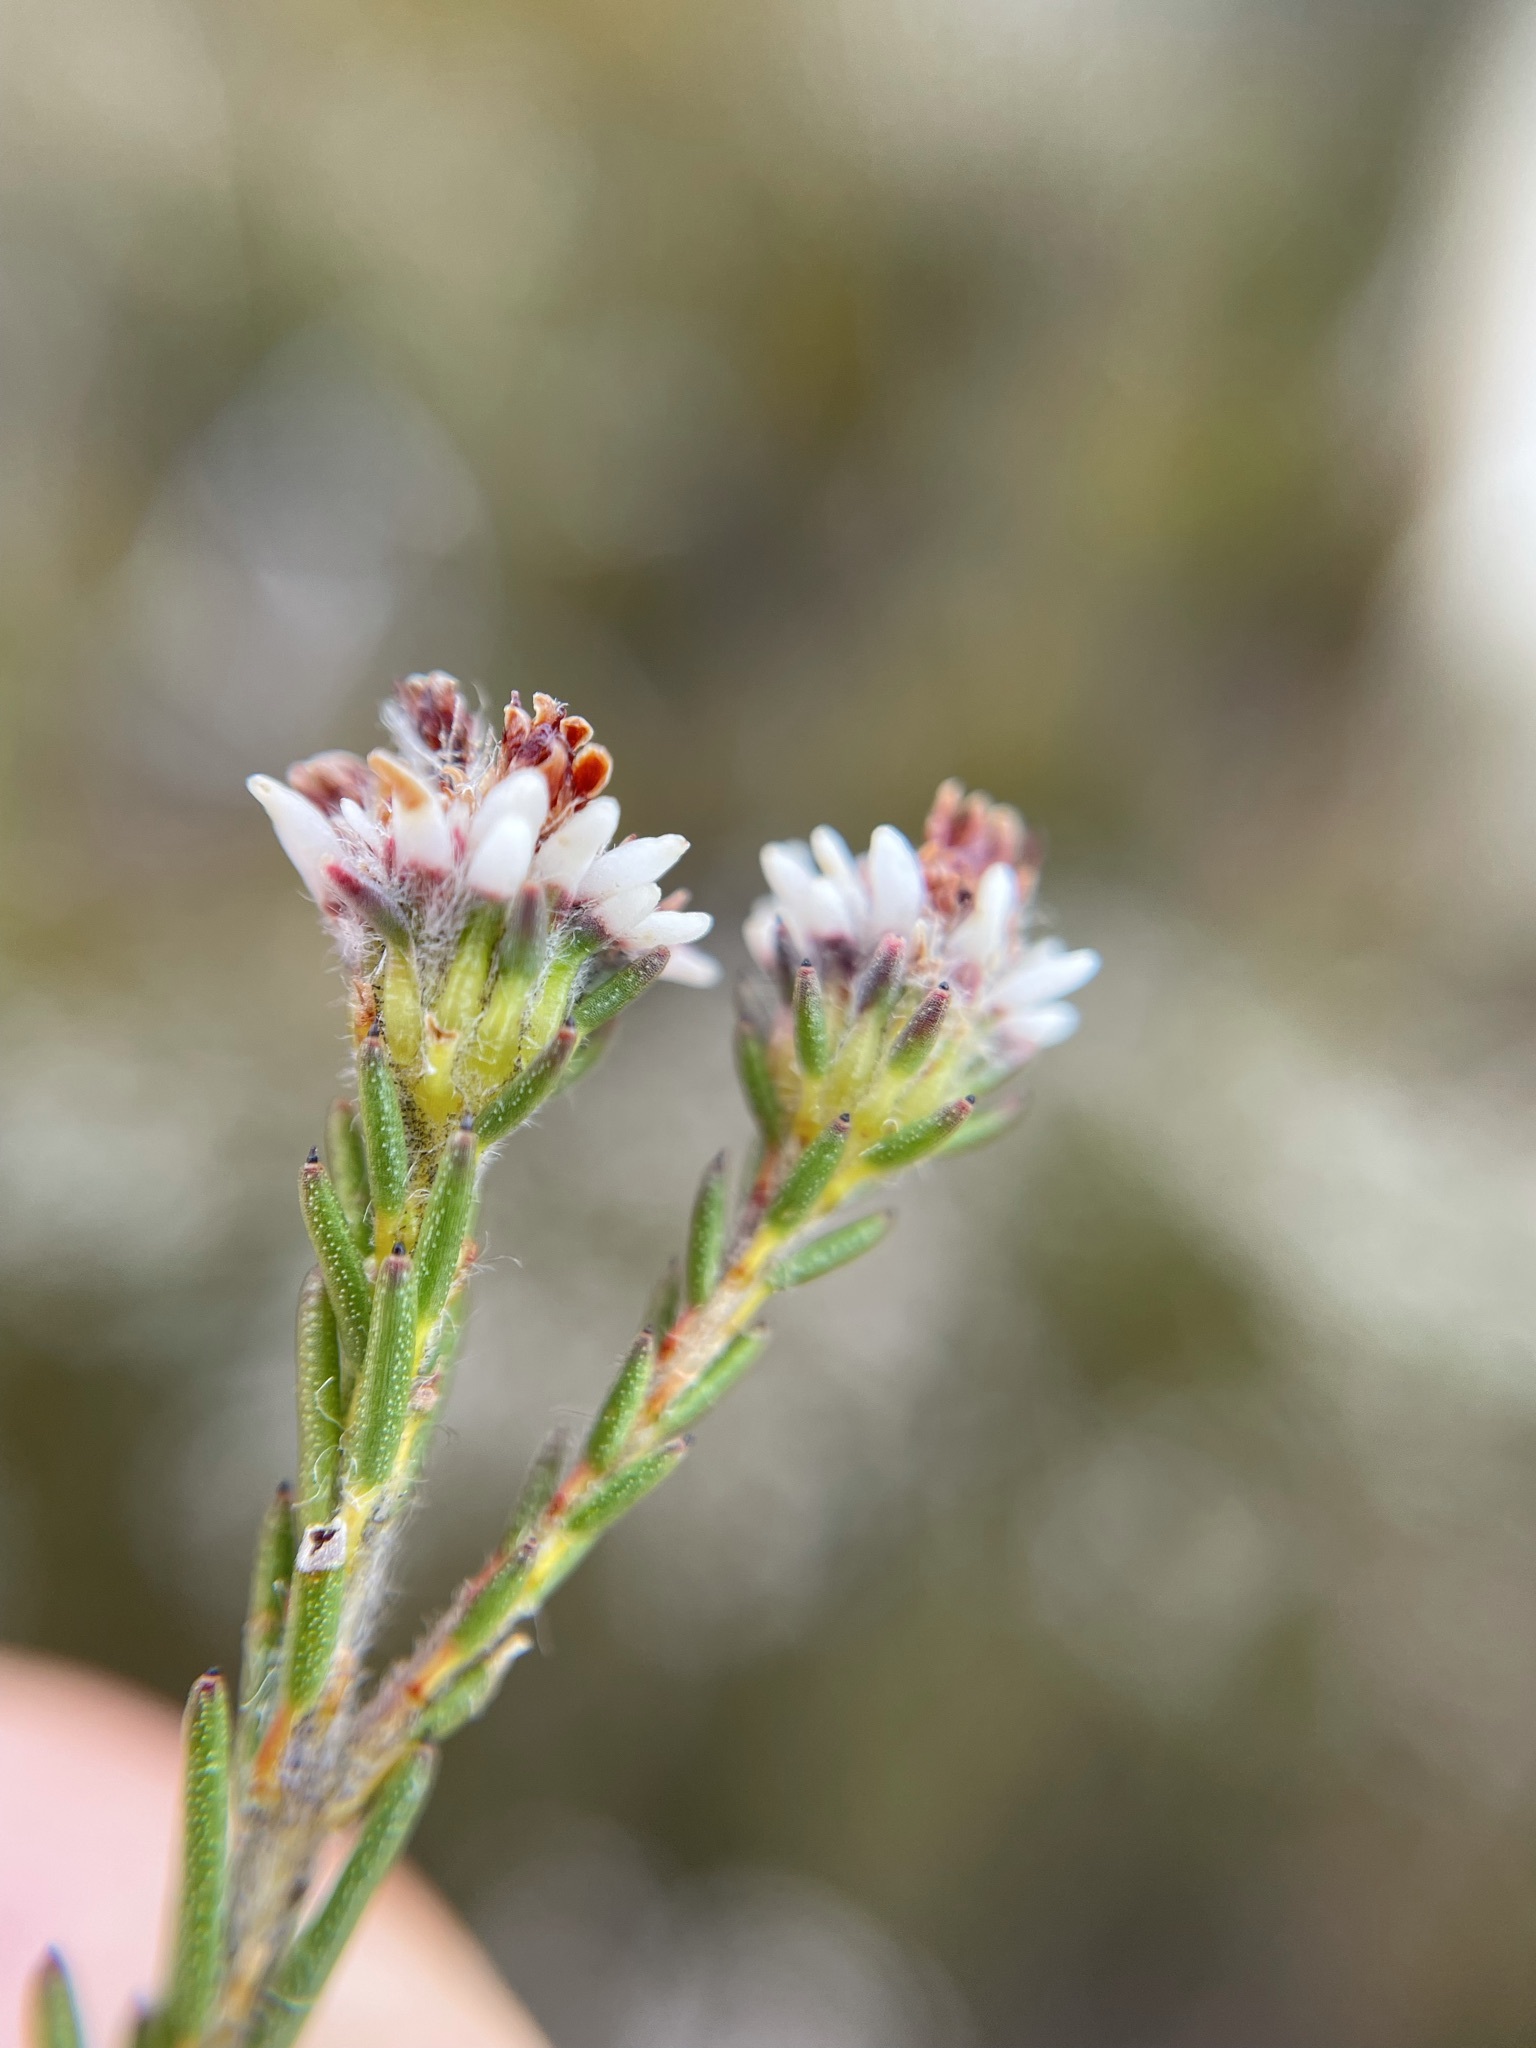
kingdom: Plantae
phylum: Tracheophyta
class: Magnoliopsida
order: Bruniales
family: Bruniaceae
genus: Staavia
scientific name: Staavia radiata
